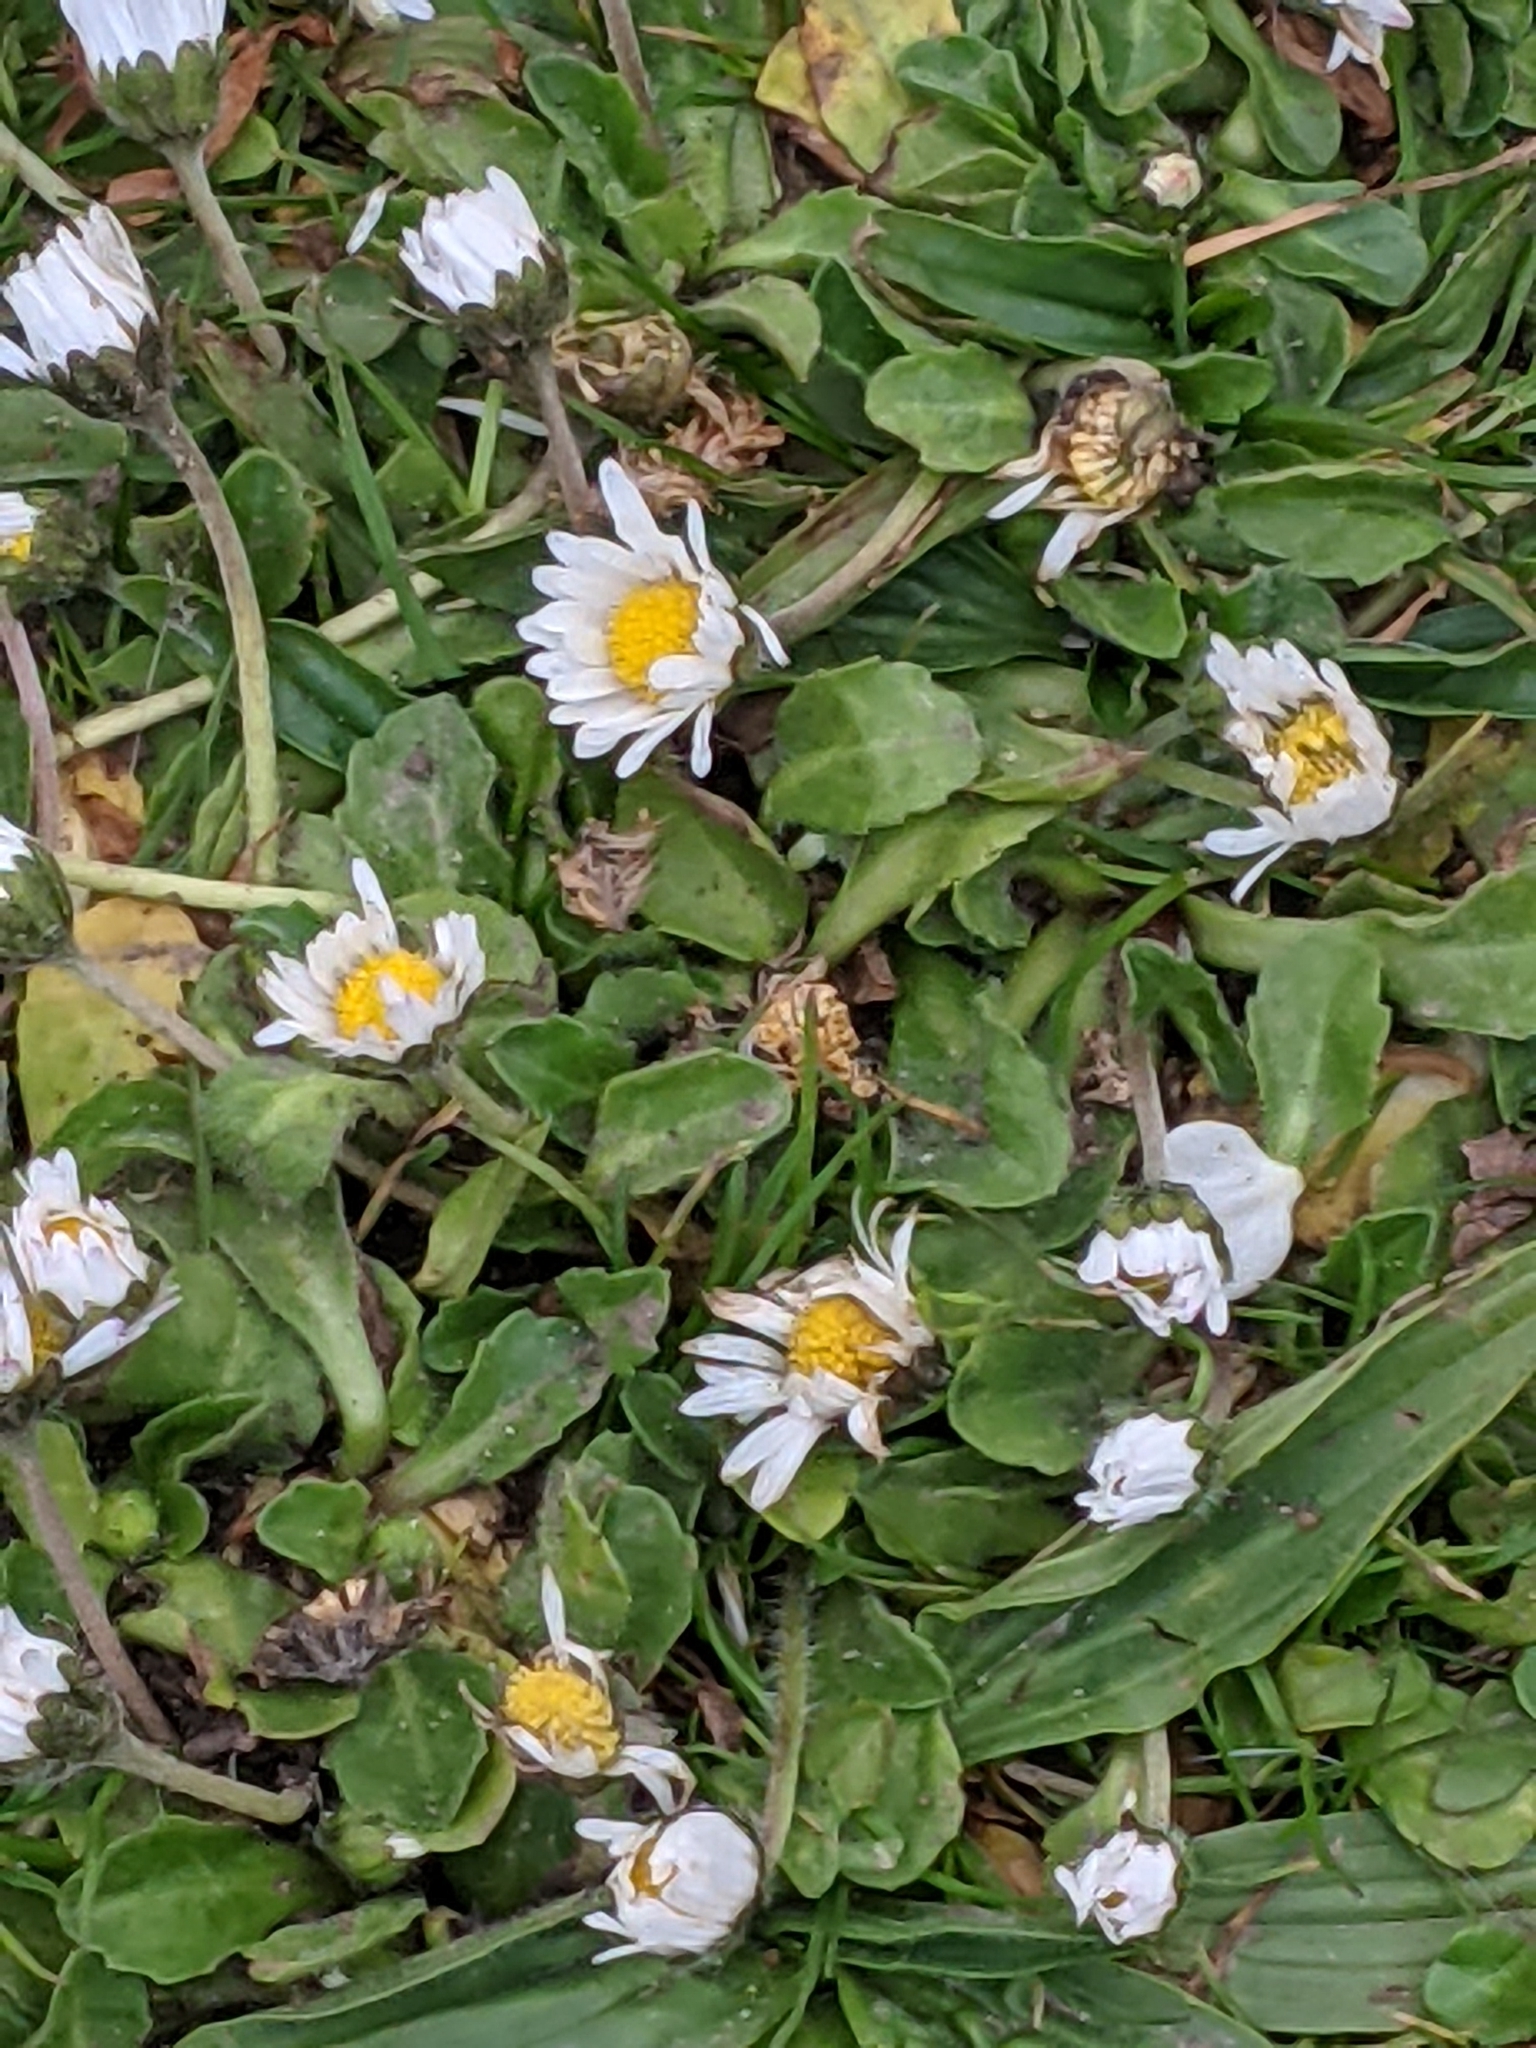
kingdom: Plantae
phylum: Tracheophyta
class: Magnoliopsida
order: Asterales
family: Asteraceae
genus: Bellis
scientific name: Bellis perennis
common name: Lawndaisy
